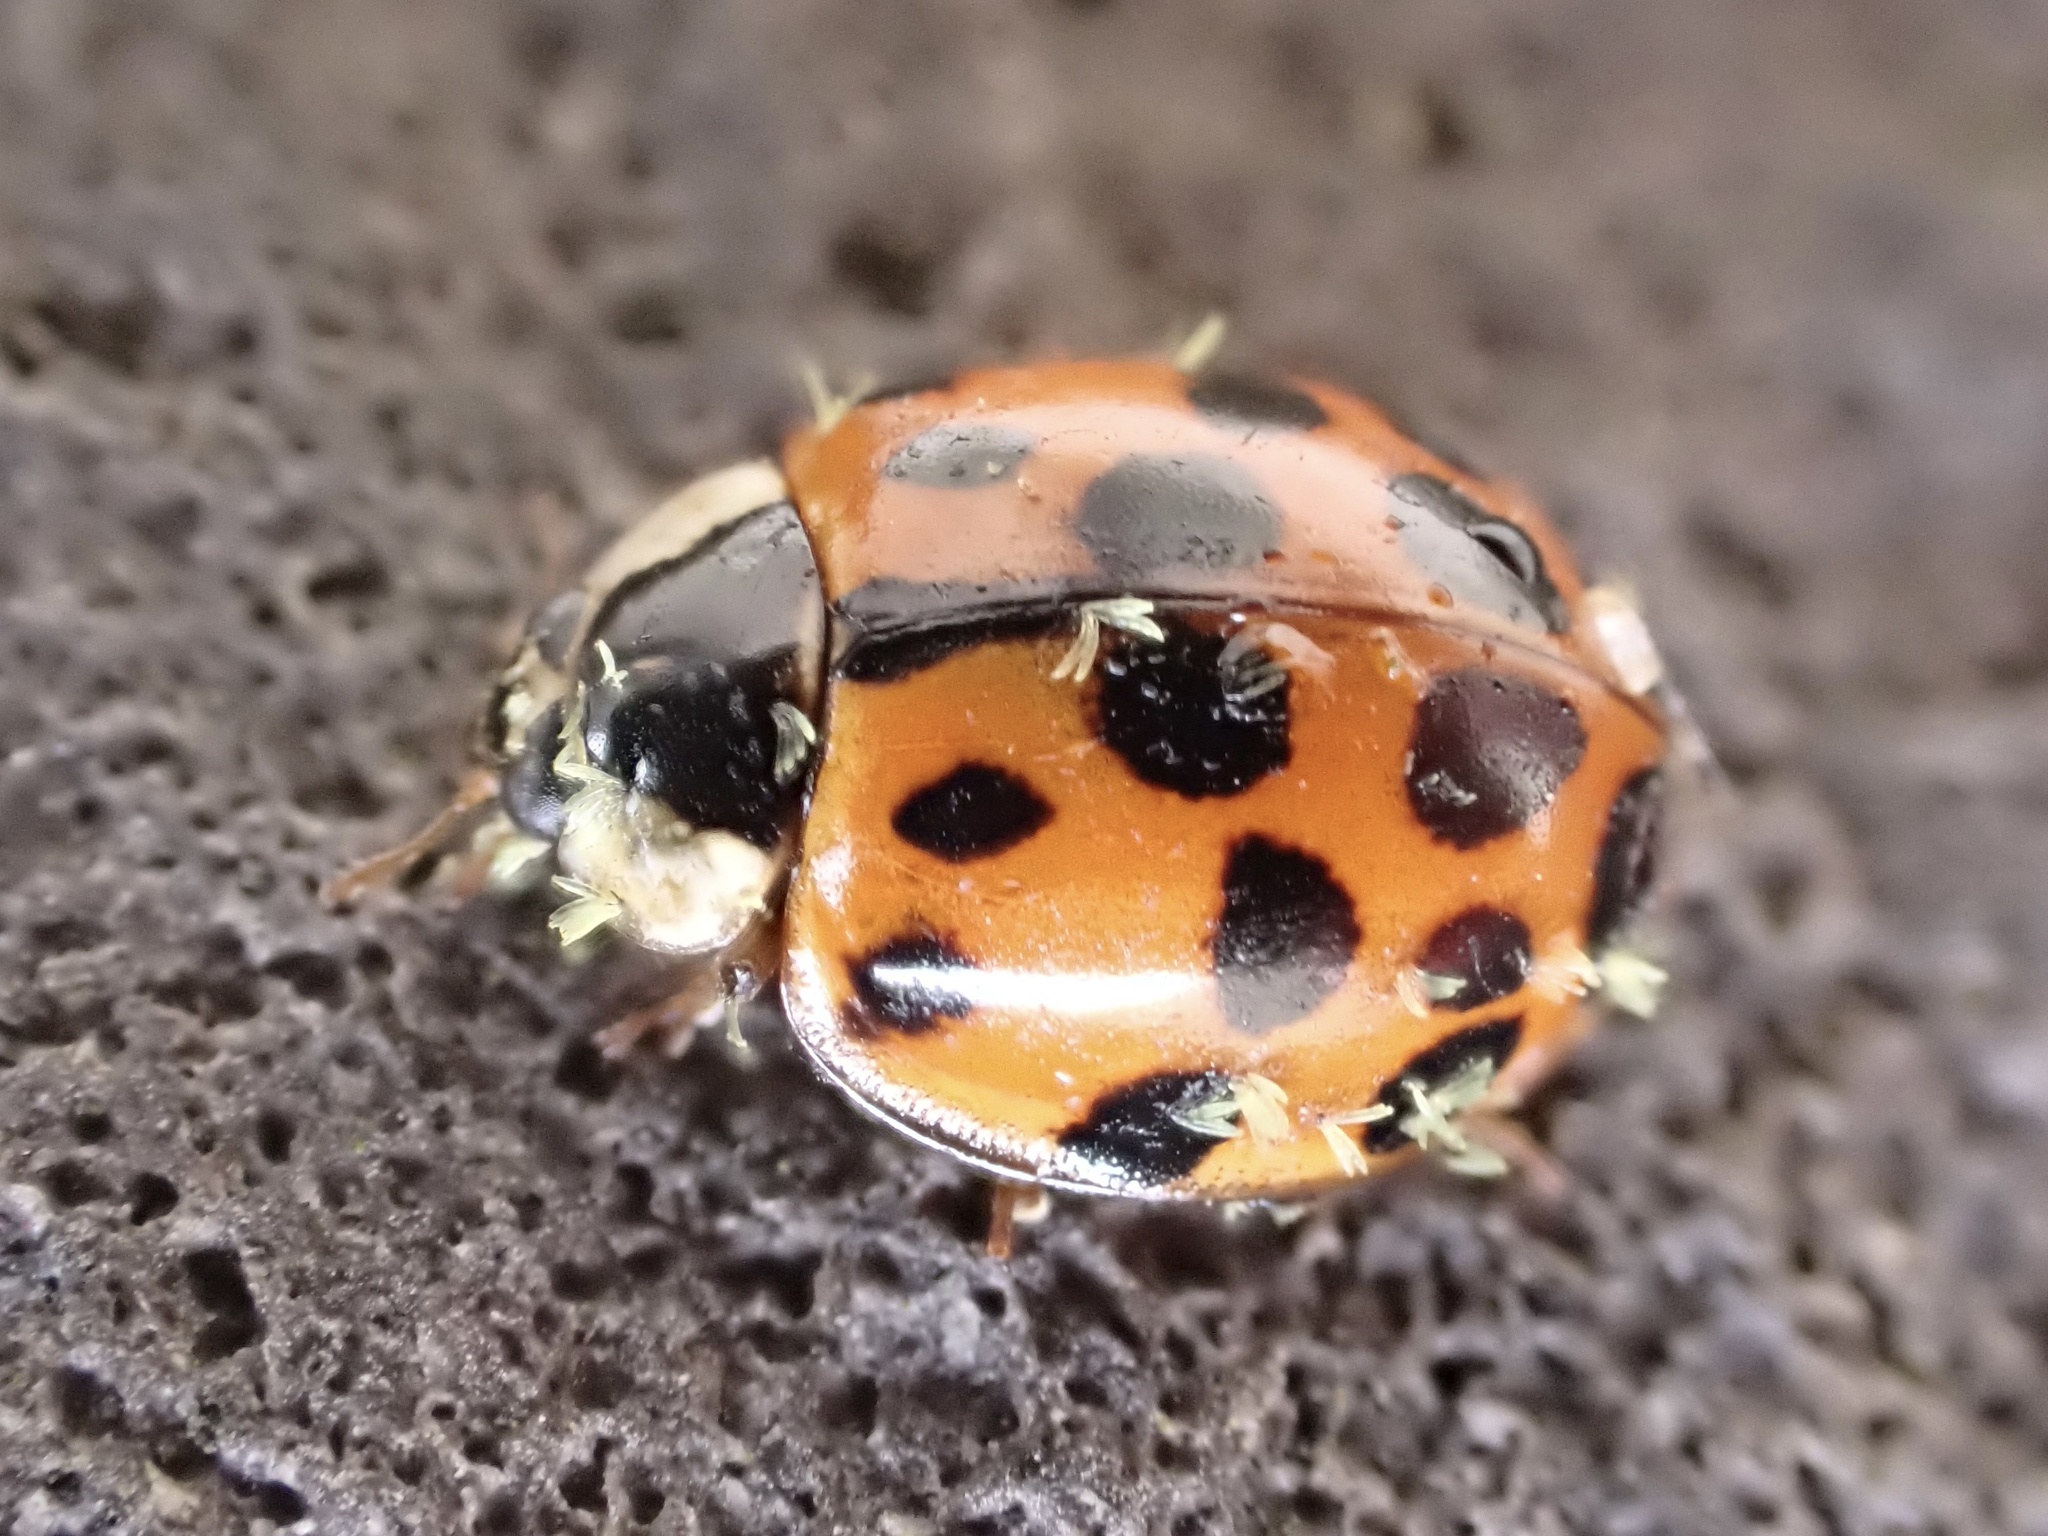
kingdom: Animalia
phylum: Arthropoda
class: Insecta
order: Coleoptera
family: Coccinellidae
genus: Harmonia
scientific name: Harmonia axyridis
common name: Harlequin ladybird
